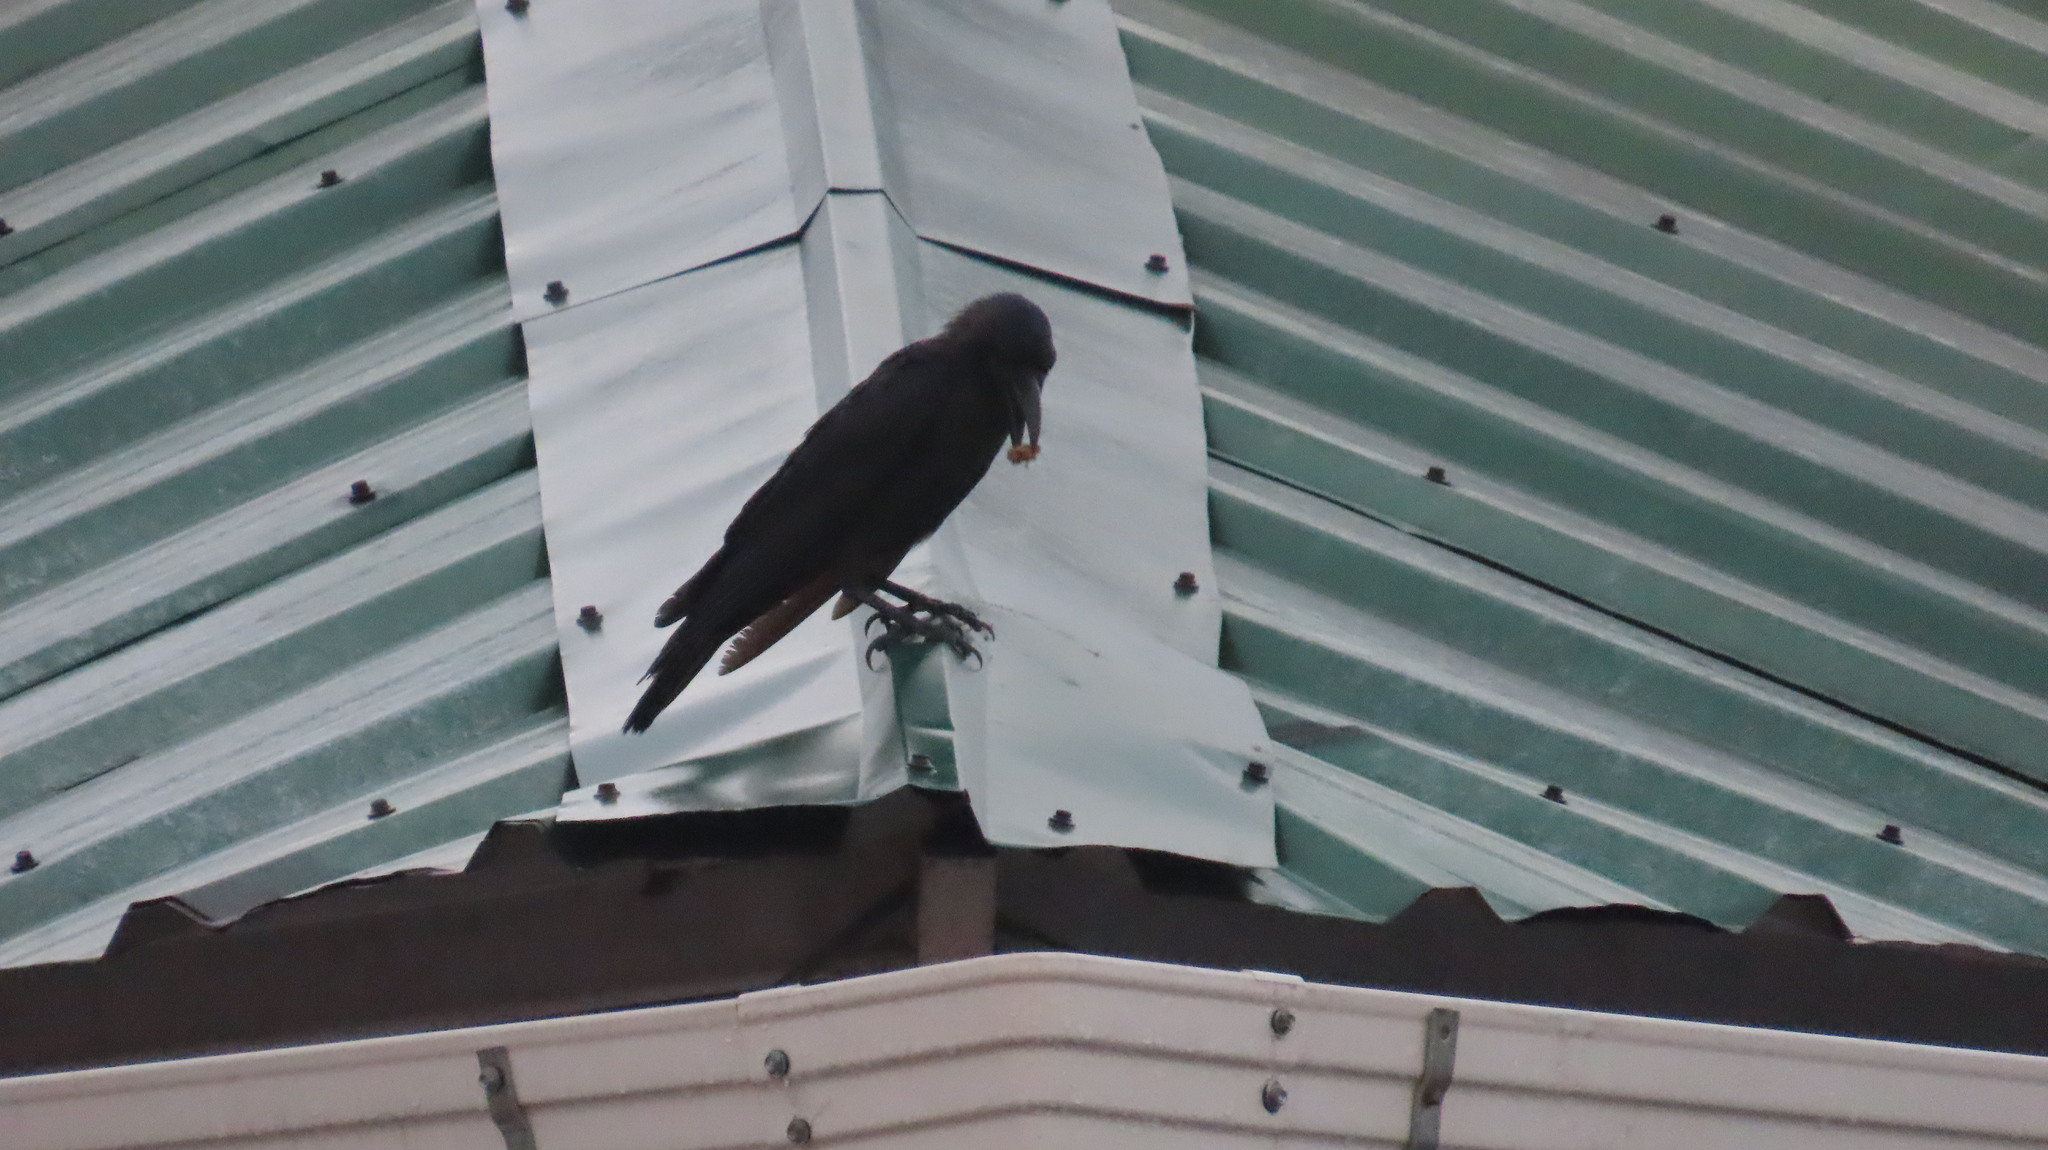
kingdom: Animalia
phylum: Chordata
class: Aves
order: Passeriformes
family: Corvidae
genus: Corvus
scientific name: Corvus splendens
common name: House crow
